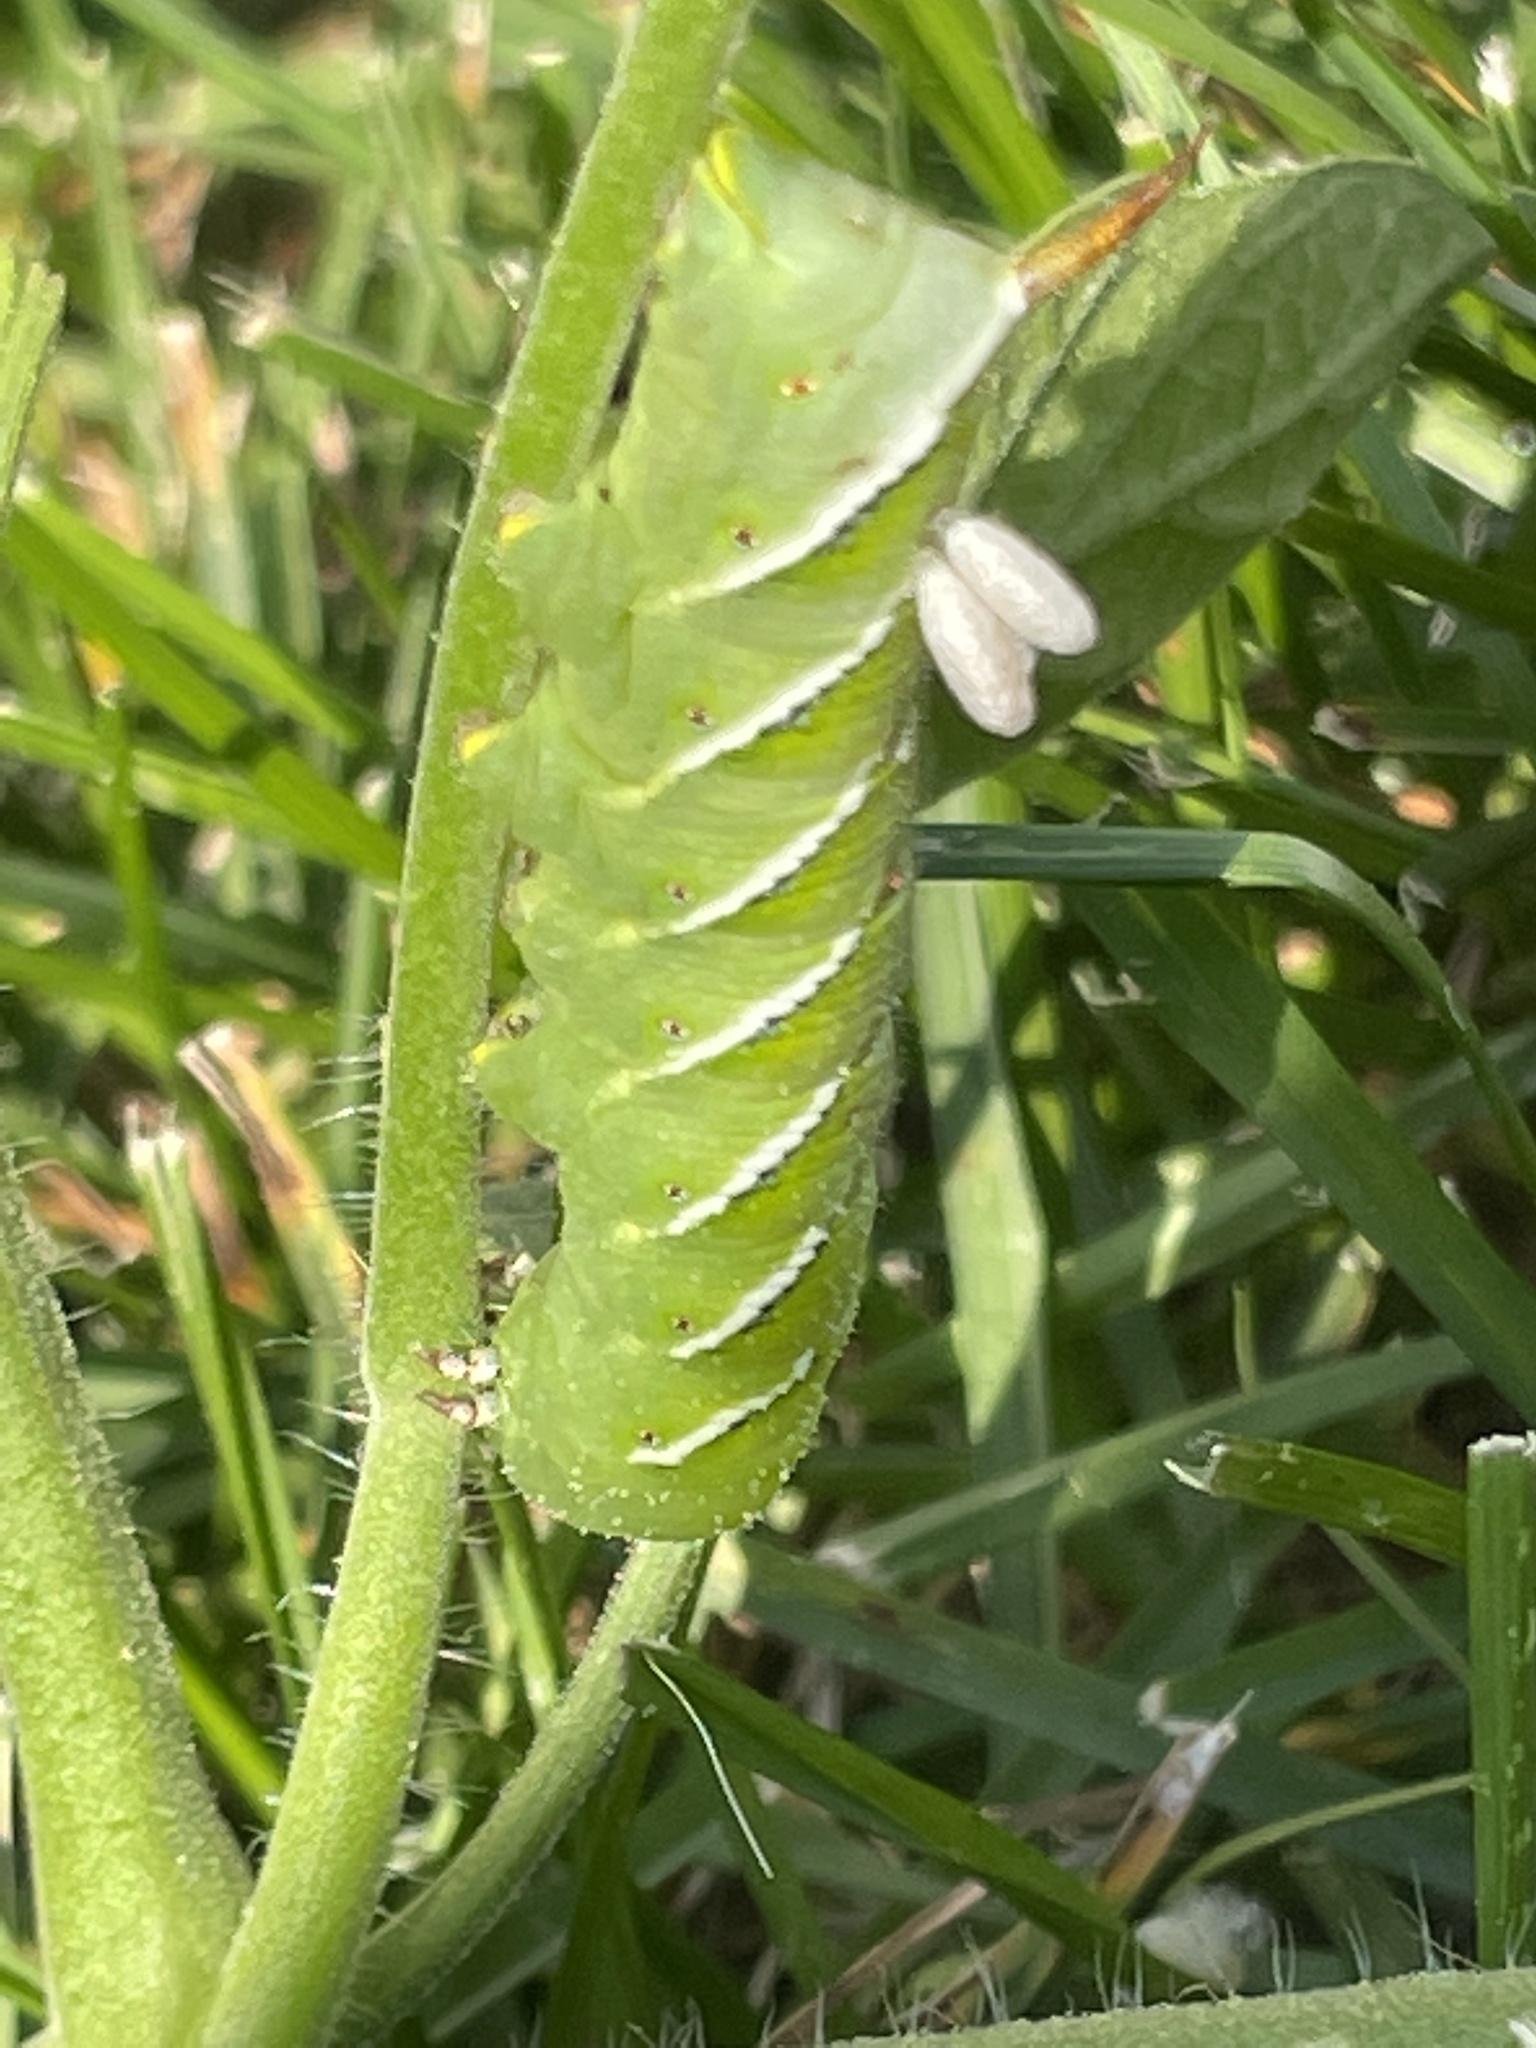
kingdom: Animalia
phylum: Arthropoda
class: Insecta
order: Lepidoptera
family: Sphingidae
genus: Manduca
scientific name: Manduca sexta
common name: Carolina sphinx
